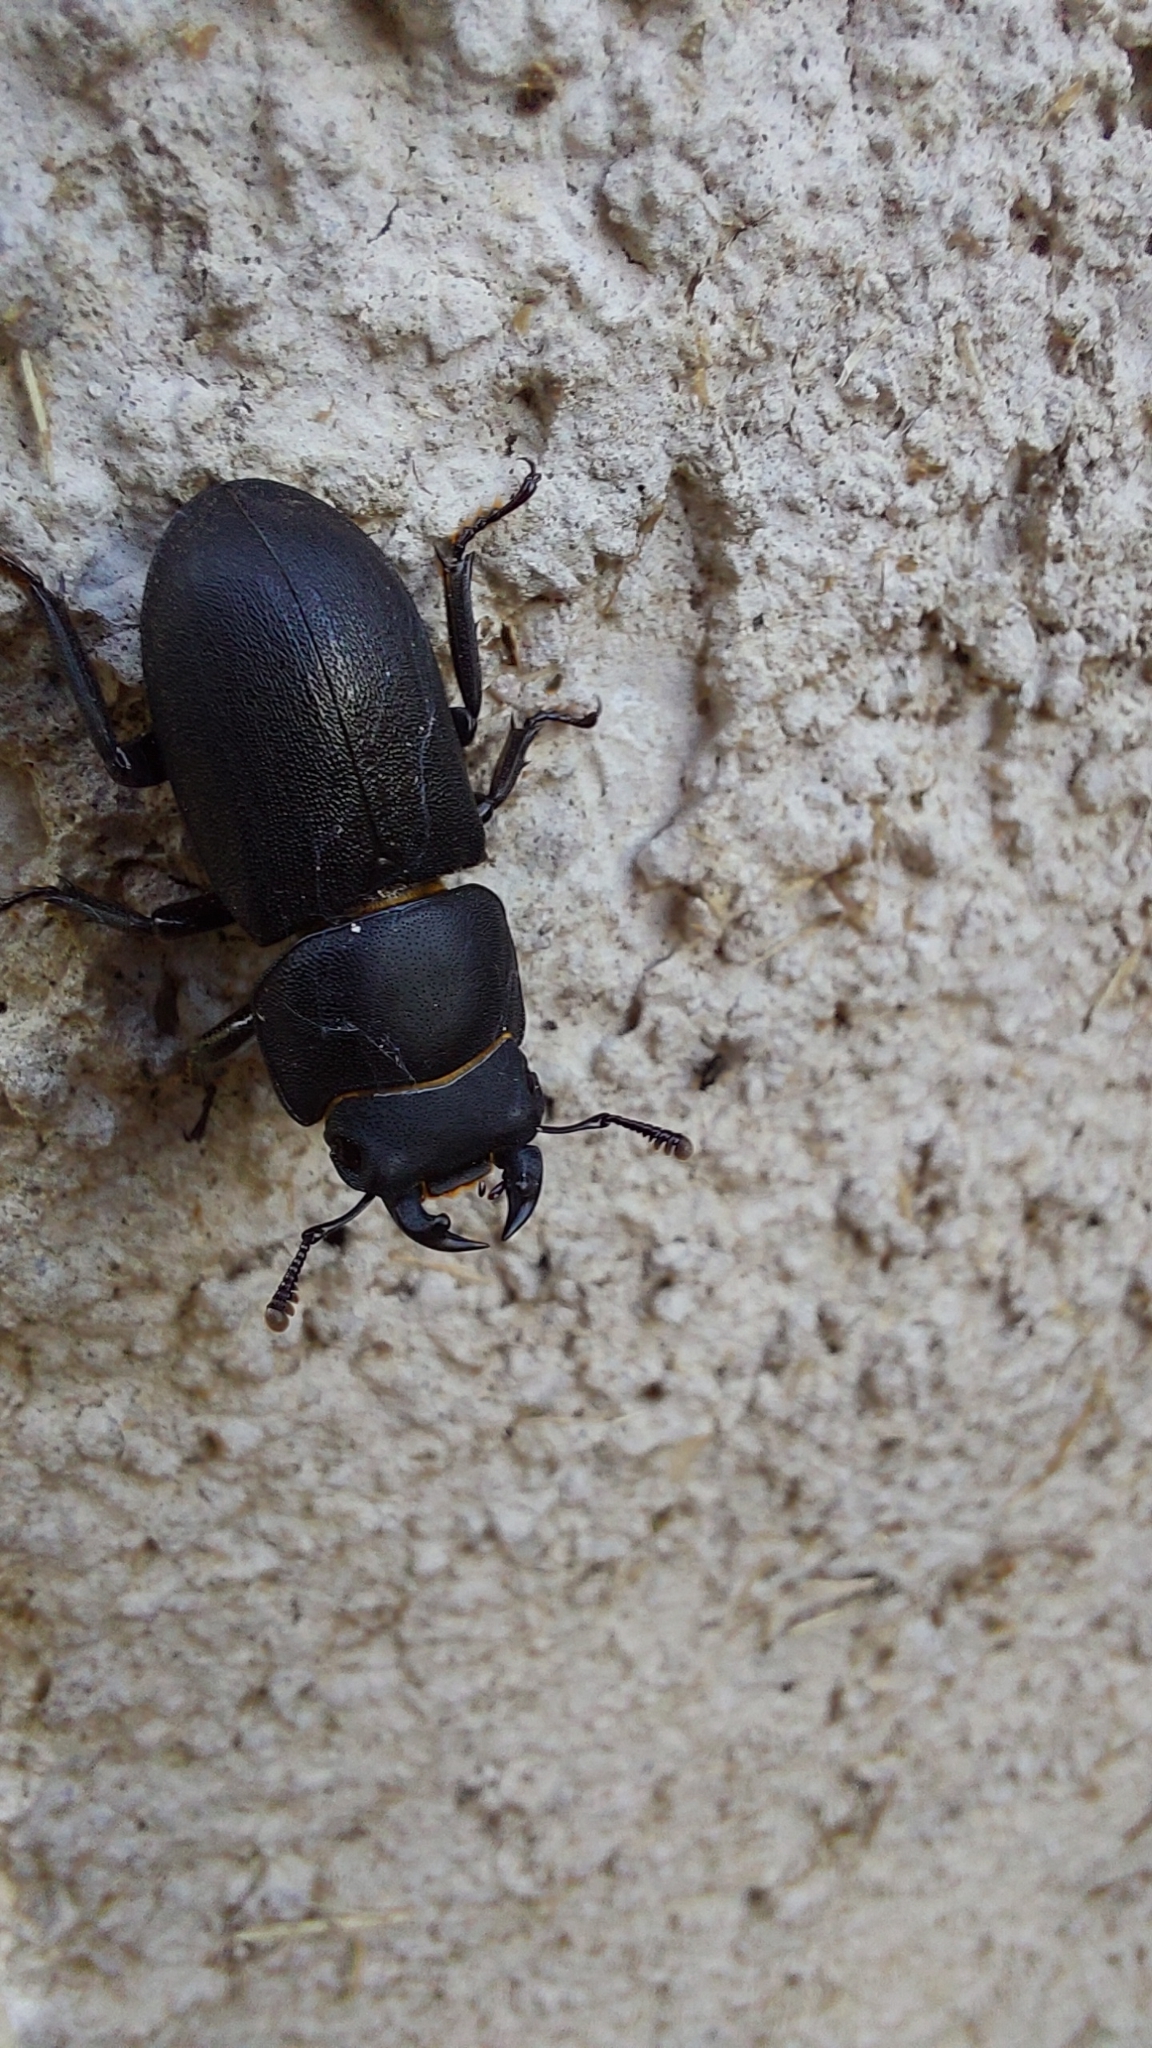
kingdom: Animalia
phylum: Arthropoda
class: Insecta
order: Coleoptera
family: Lucanidae
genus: Dorcus
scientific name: Dorcus parallelipipedus
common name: Lesser stag beetle
